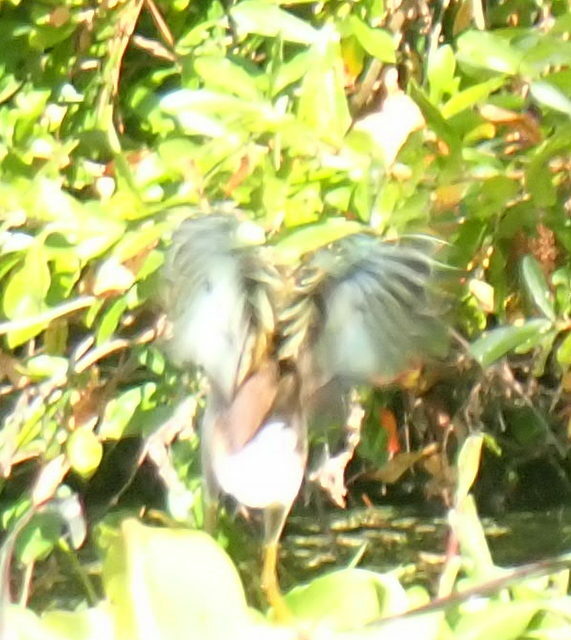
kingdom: Animalia
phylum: Chordata
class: Aves
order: Gruiformes
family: Rallidae
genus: Porphyrio
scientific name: Porphyrio martinica
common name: Purple gallinule
